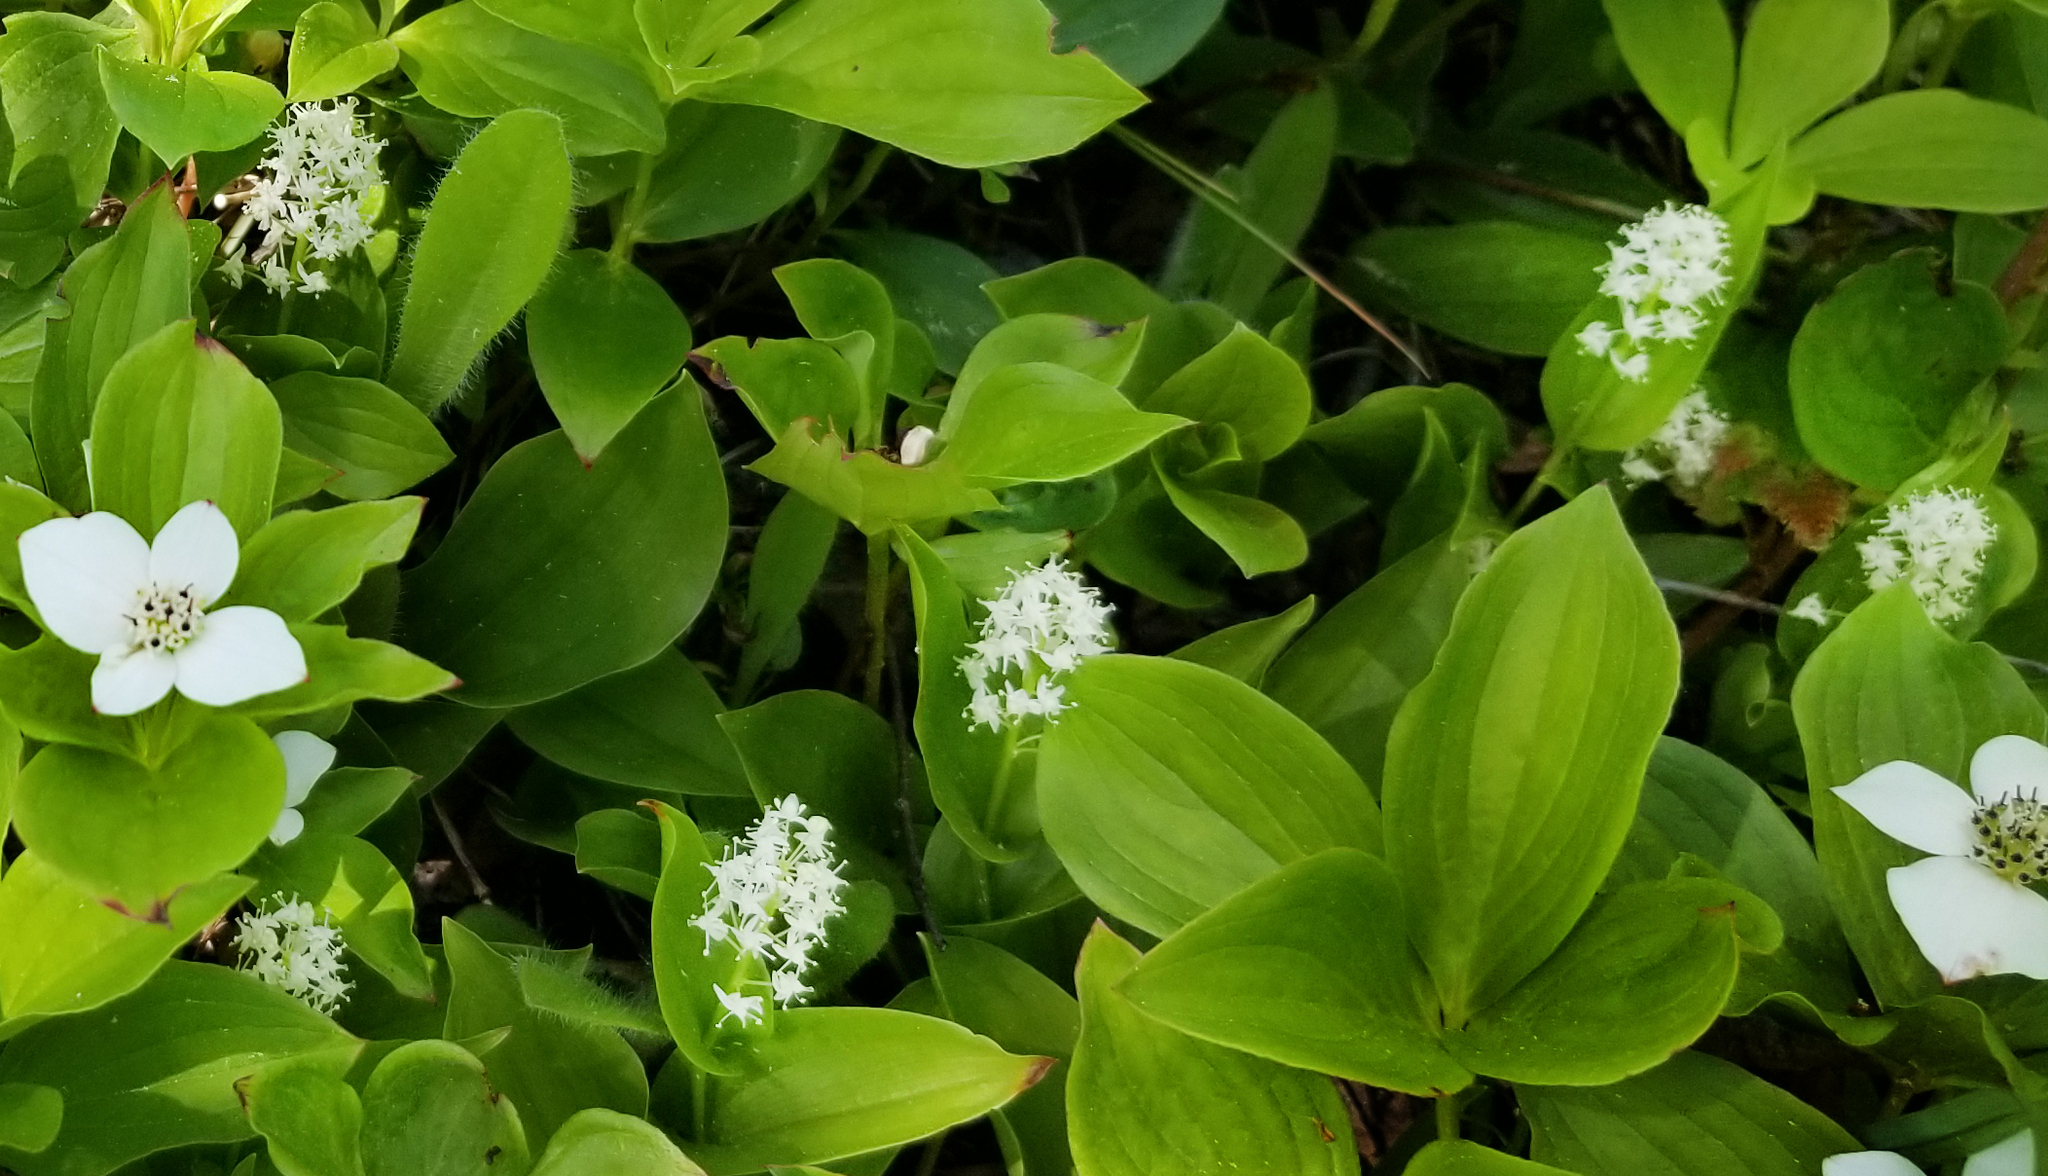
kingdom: Plantae
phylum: Tracheophyta
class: Liliopsida
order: Asparagales
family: Asparagaceae
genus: Maianthemum
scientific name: Maianthemum canadense
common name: False lily-of-the-valley
